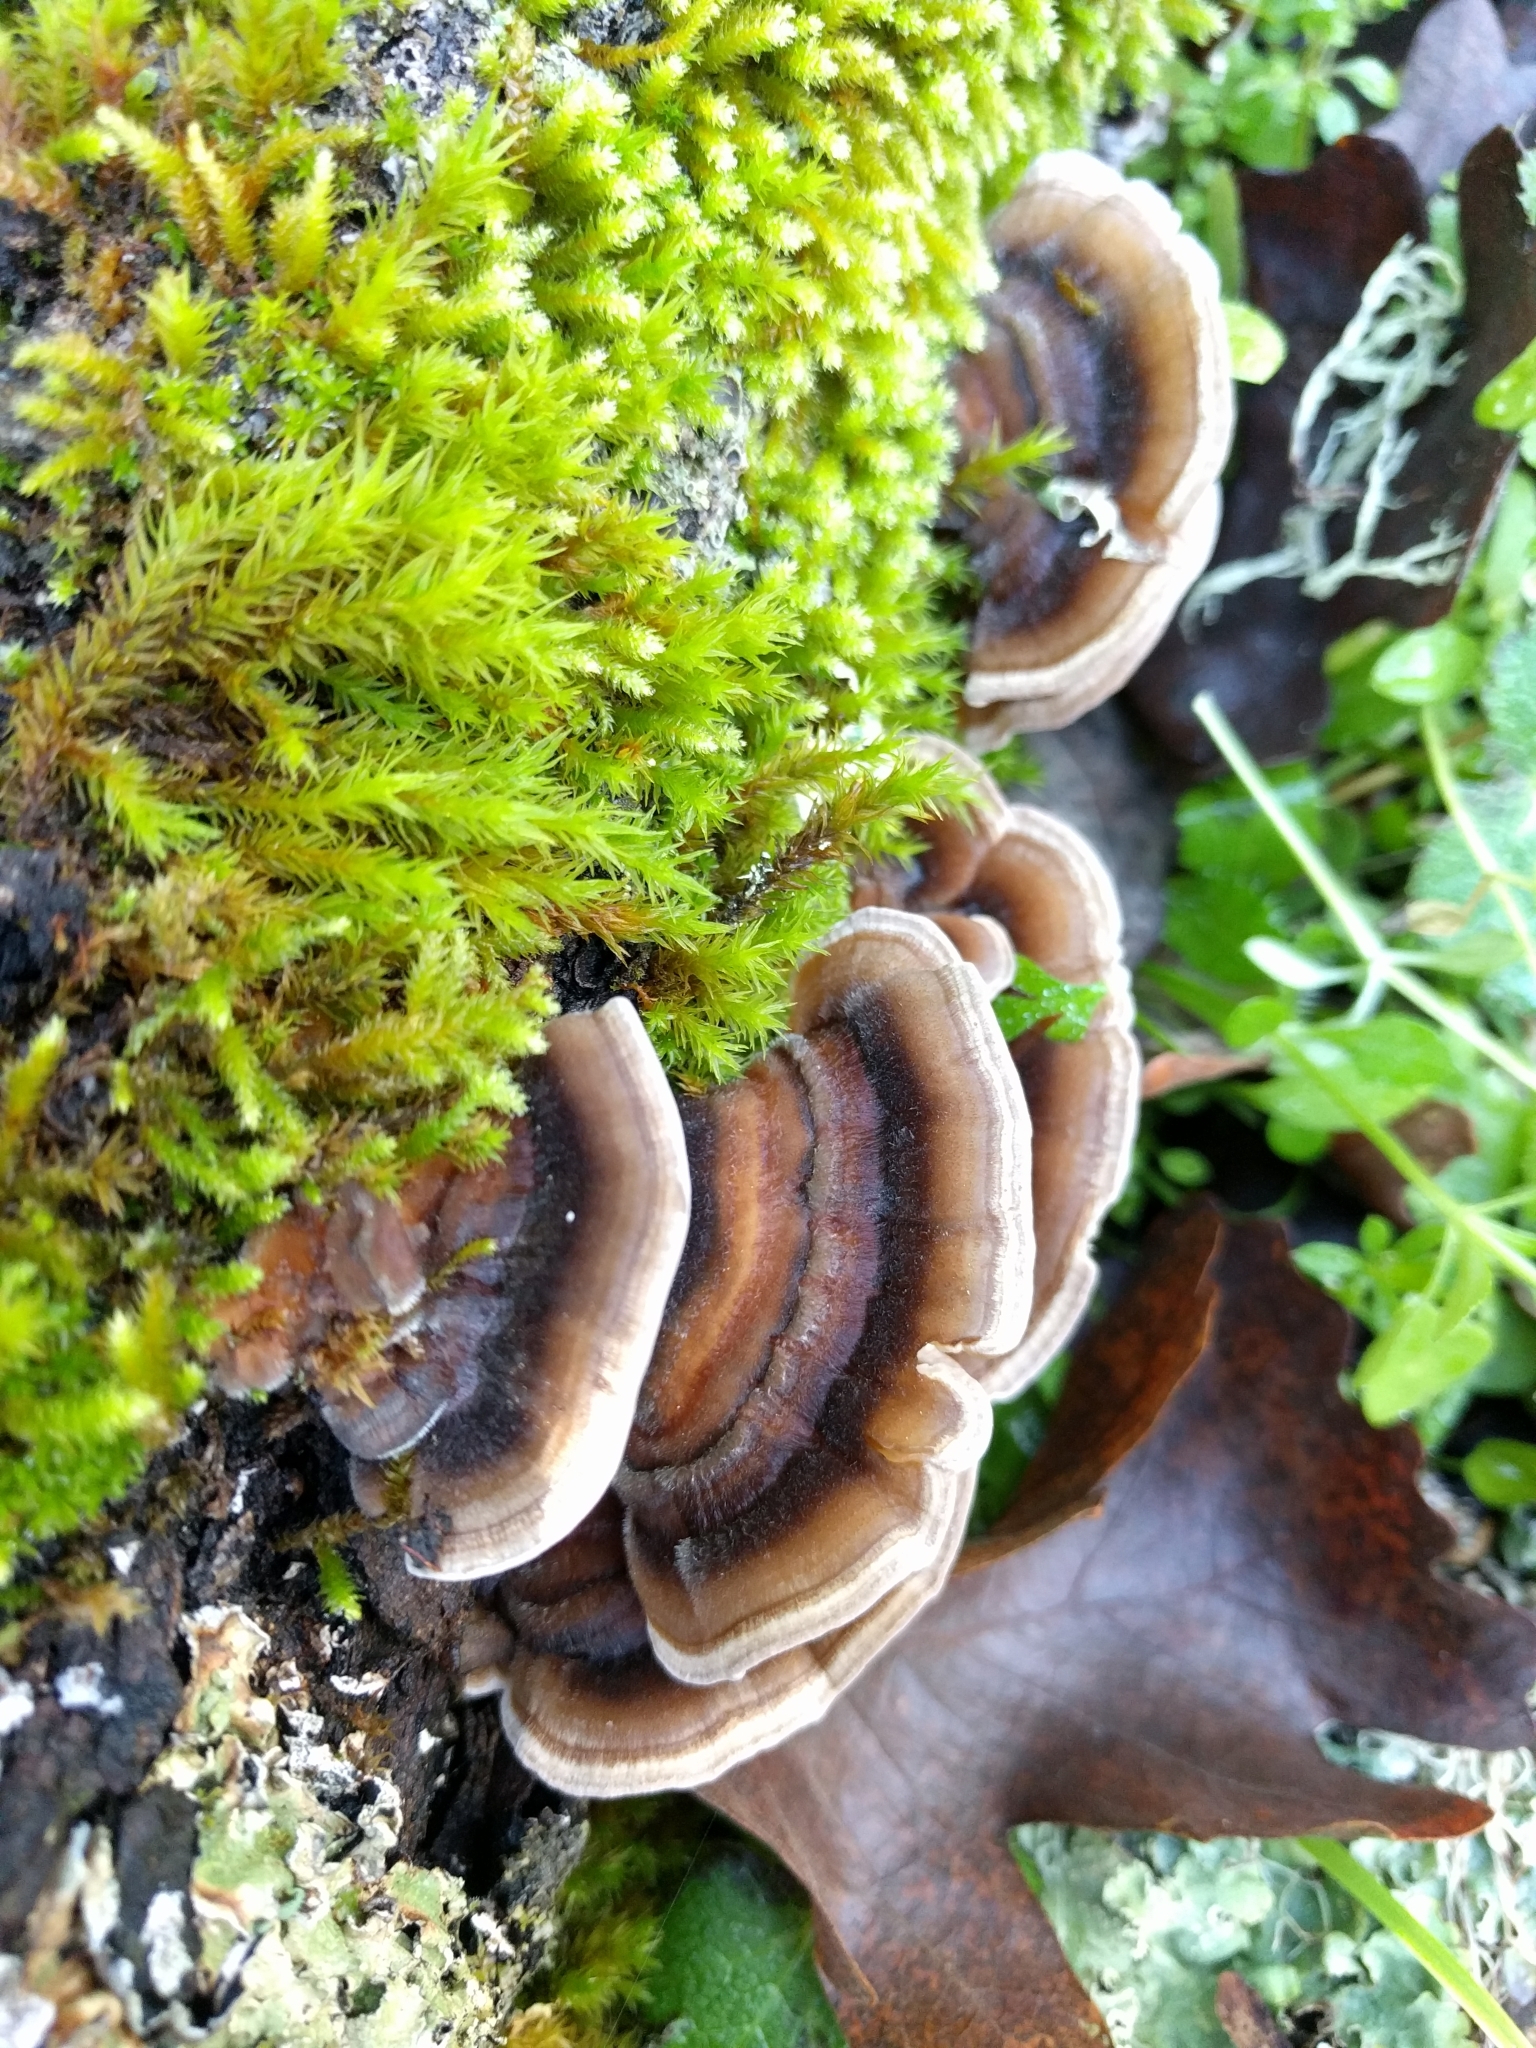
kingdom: Fungi
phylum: Basidiomycota
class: Agaricomycetes
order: Polyporales
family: Polyporaceae
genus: Trametes
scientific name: Trametes versicolor
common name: Turkeytail
